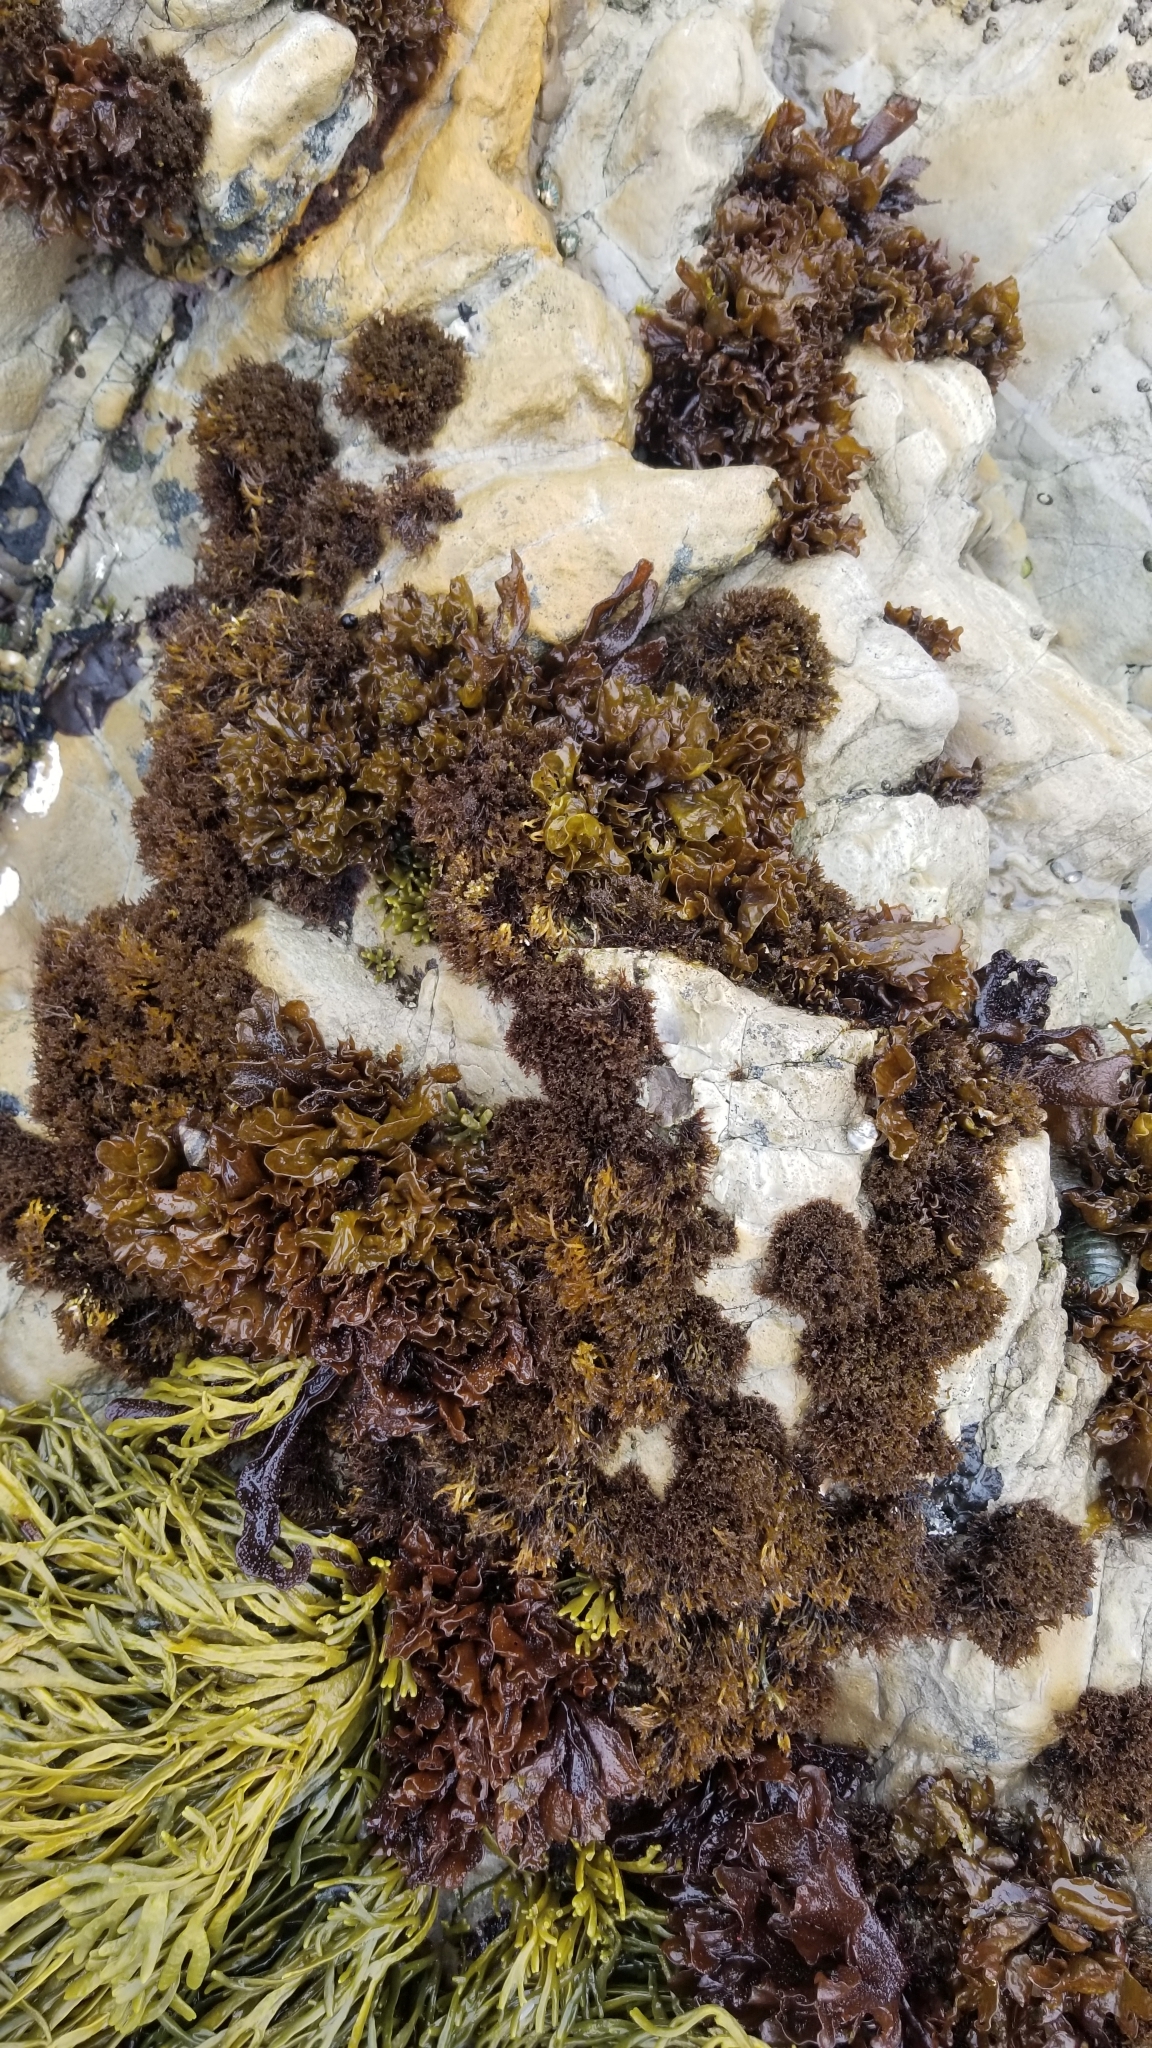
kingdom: Plantae
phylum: Rhodophyta
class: Florideophyceae
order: Gigartinales
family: Endocladiaceae
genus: Endocladia
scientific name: Endocladia muricata
